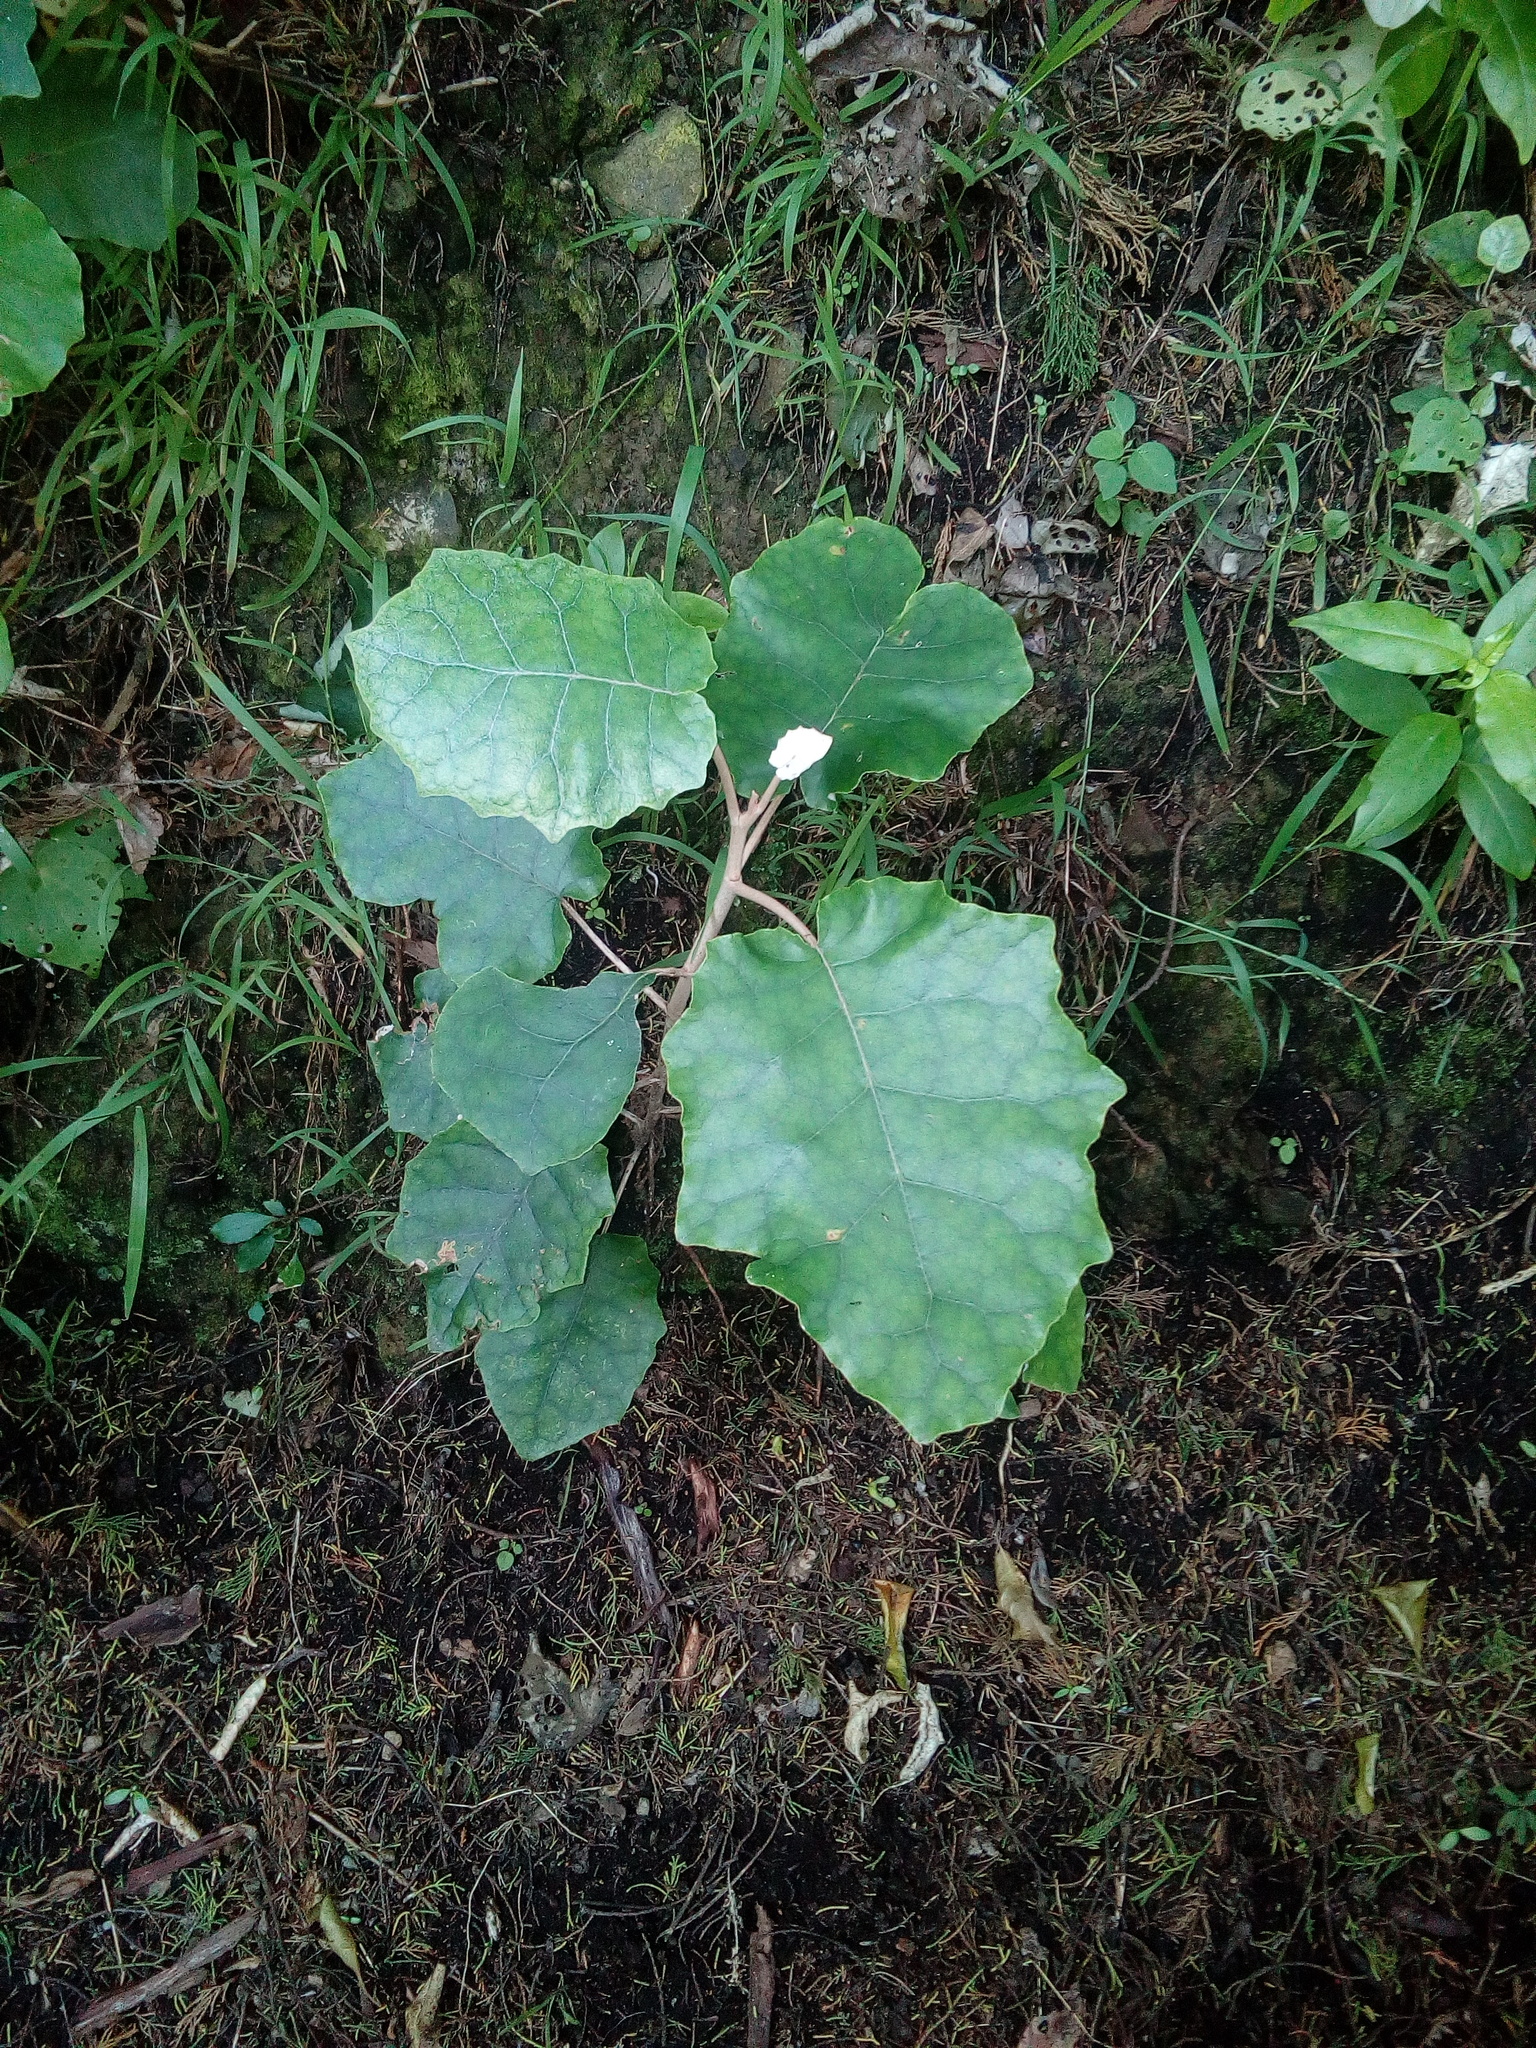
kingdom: Plantae
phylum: Tracheophyta
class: Magnoliopsida
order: Asterales
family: Asteraceae
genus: Brachyglottis
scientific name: Brachyglottis repanda
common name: Hedge ragwort
